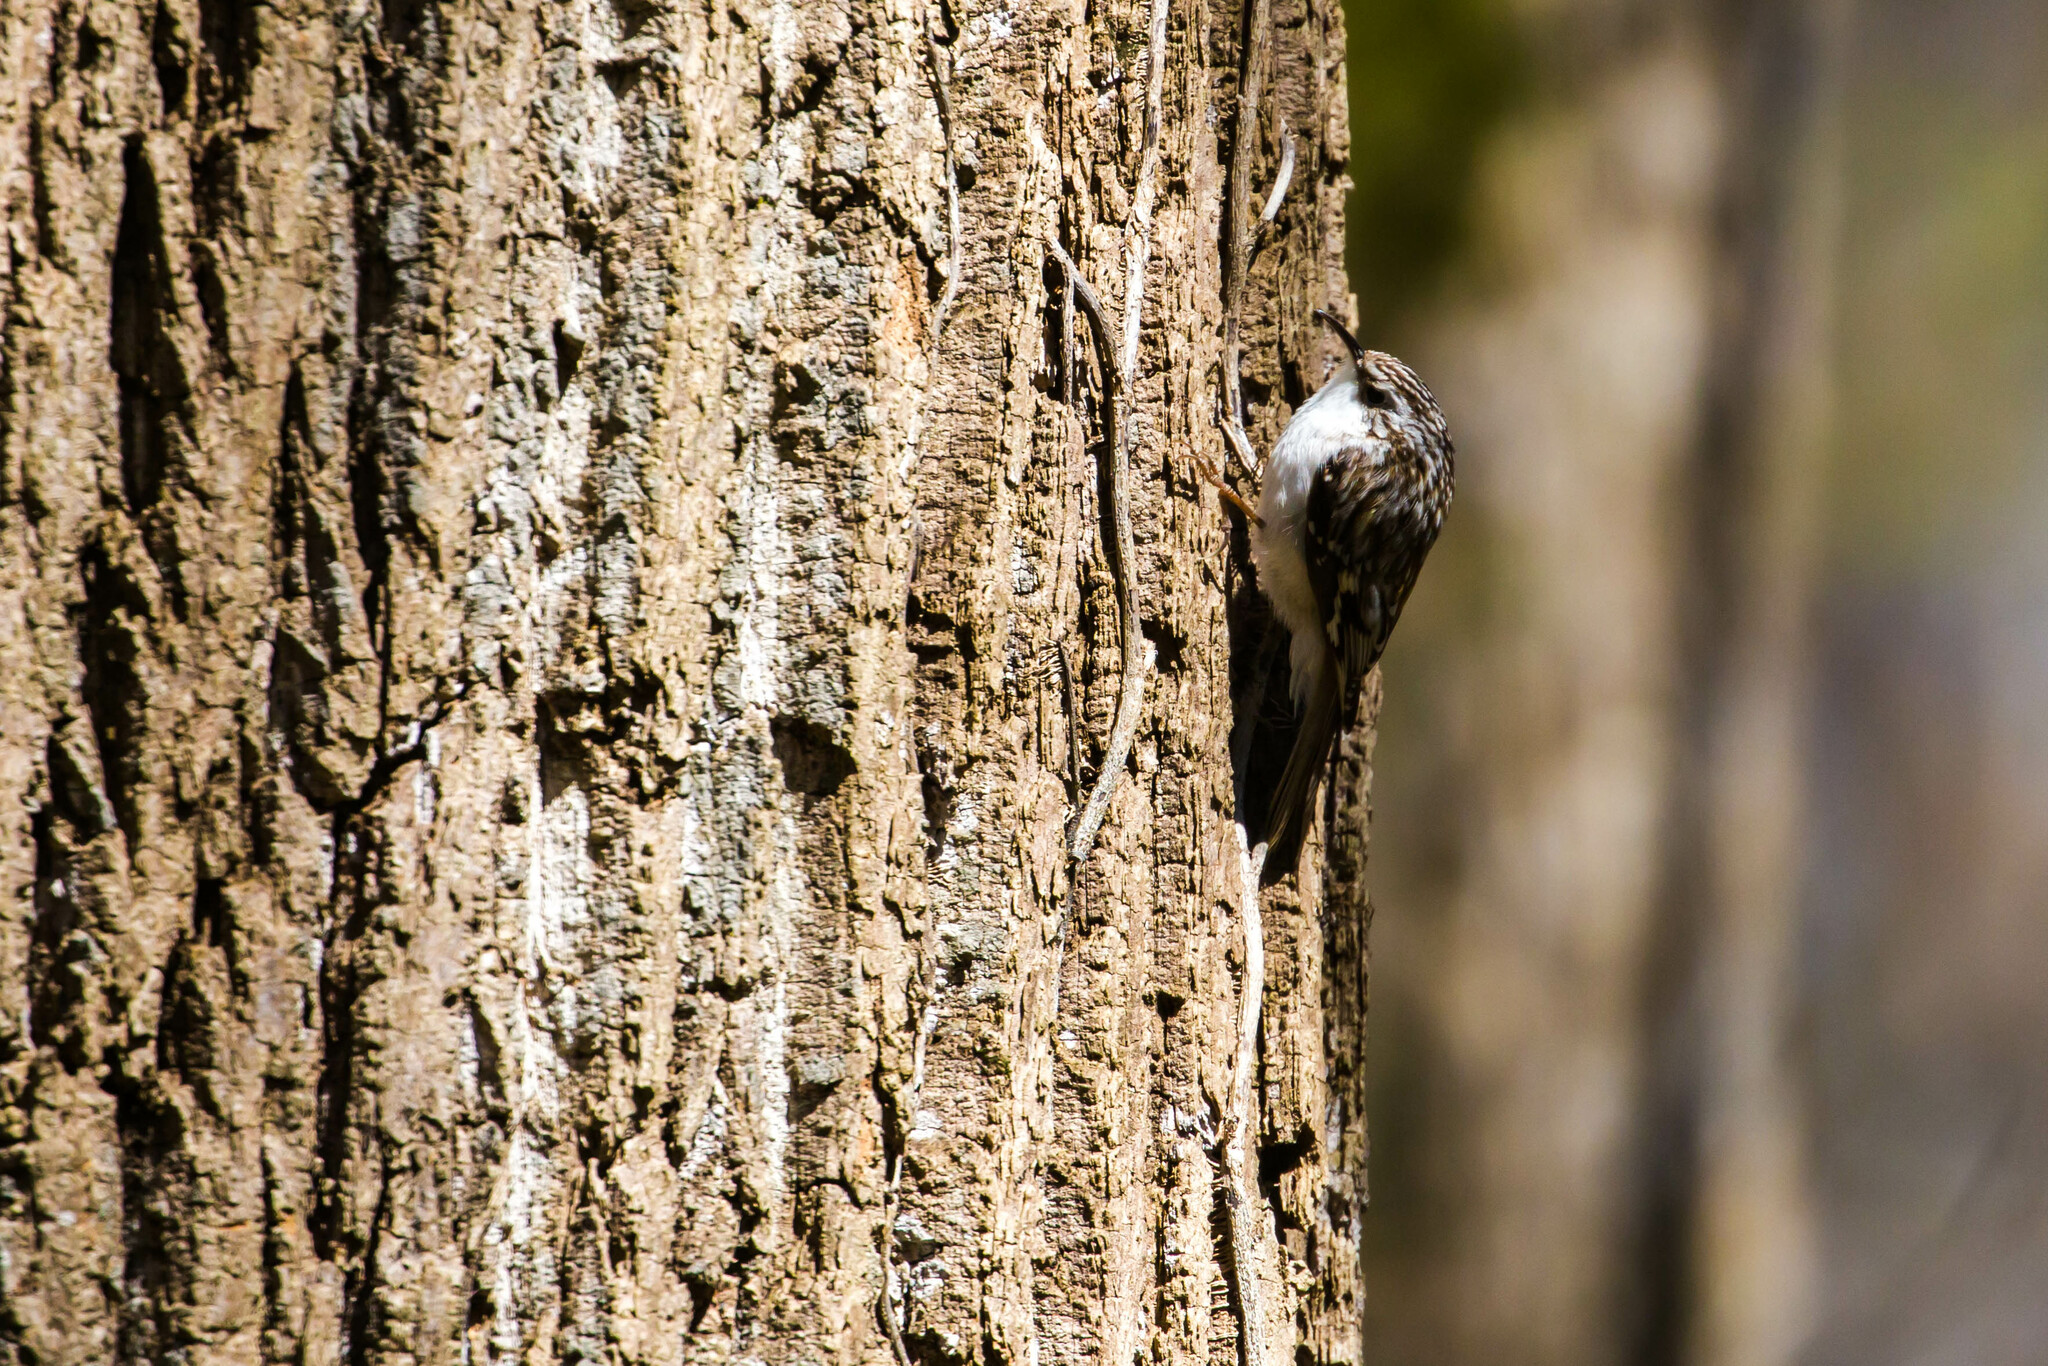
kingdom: Animalia
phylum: Chordata
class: Aves
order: Passeriformes
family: Certhiidae
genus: Certhia
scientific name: Certhia americana
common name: Brown creeper
